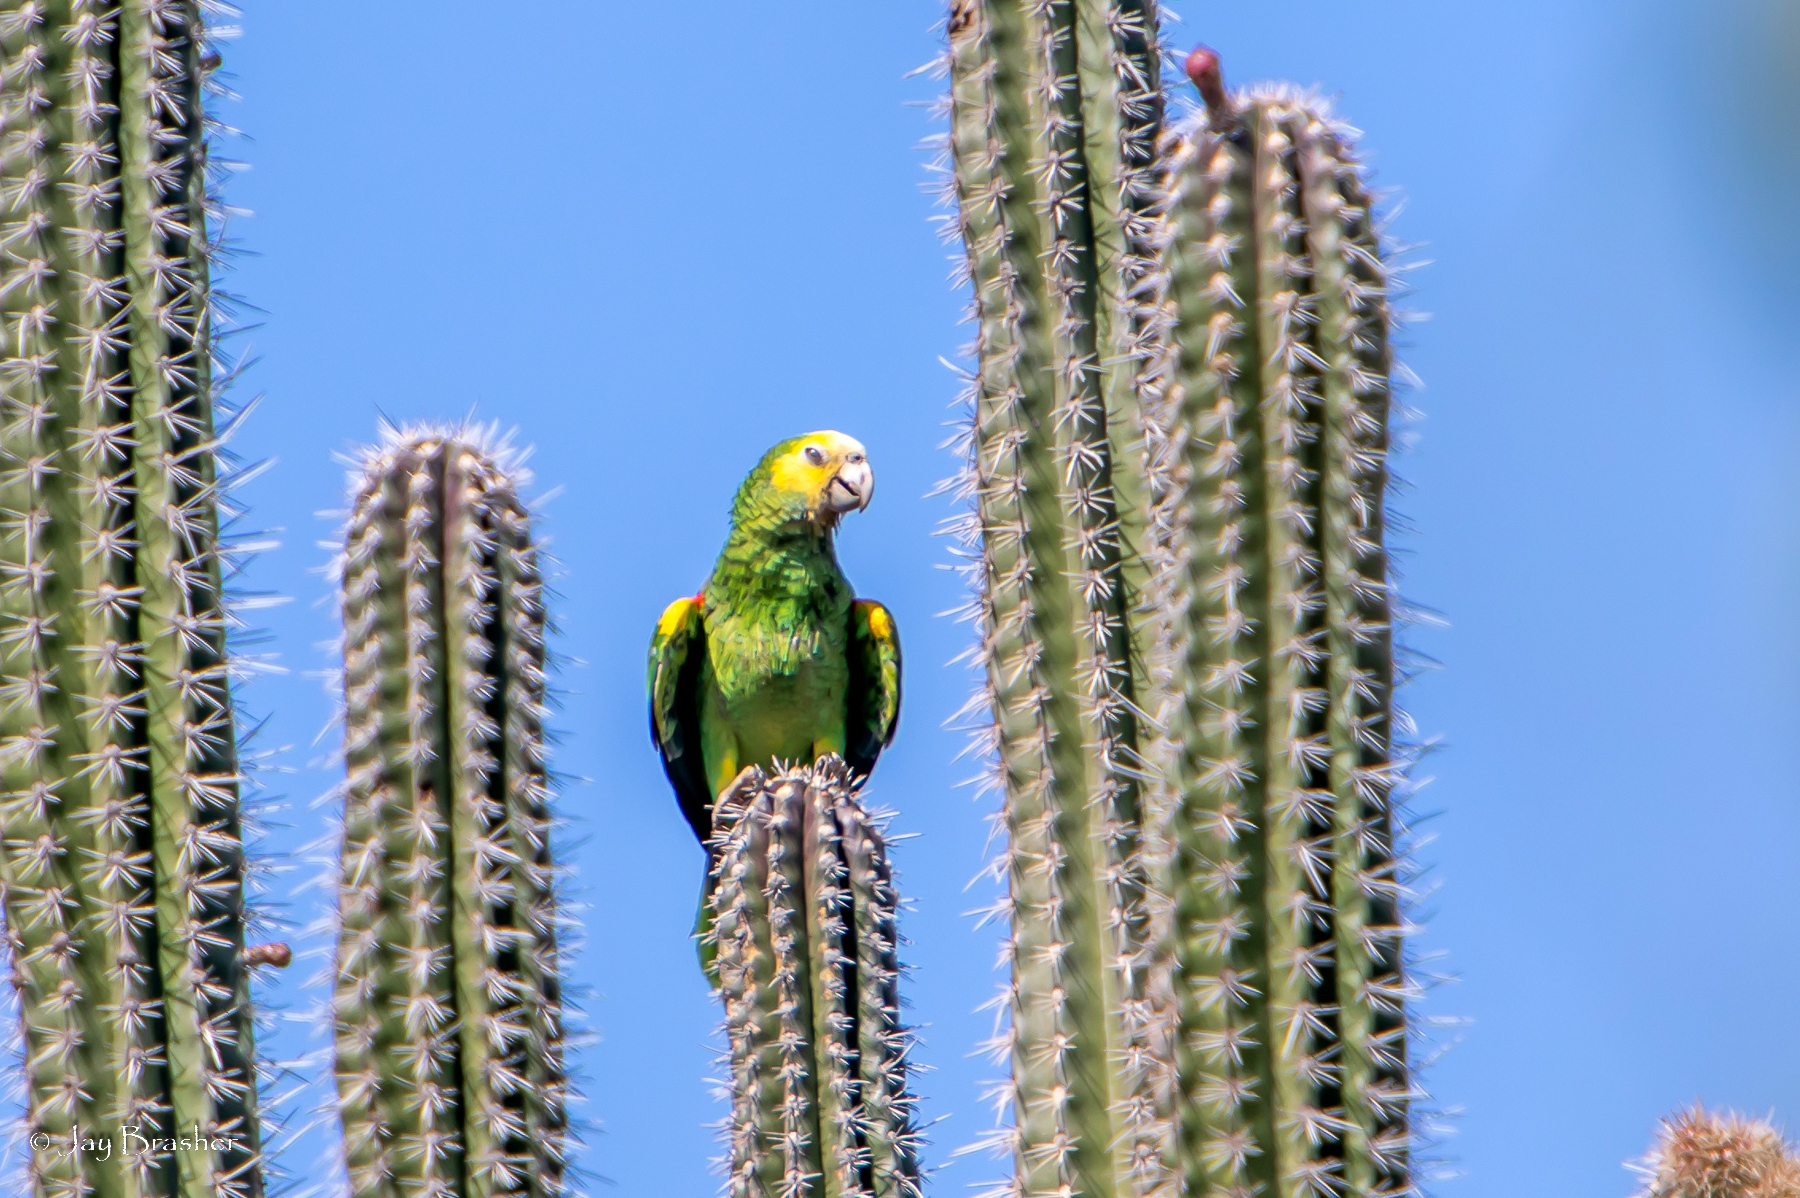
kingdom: Animalia
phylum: Chordata
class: Aves
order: Psittaciformes
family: Psittacidae
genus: Amazona
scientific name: Amazona barbadensis
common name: Yellow-shouldered amazon
